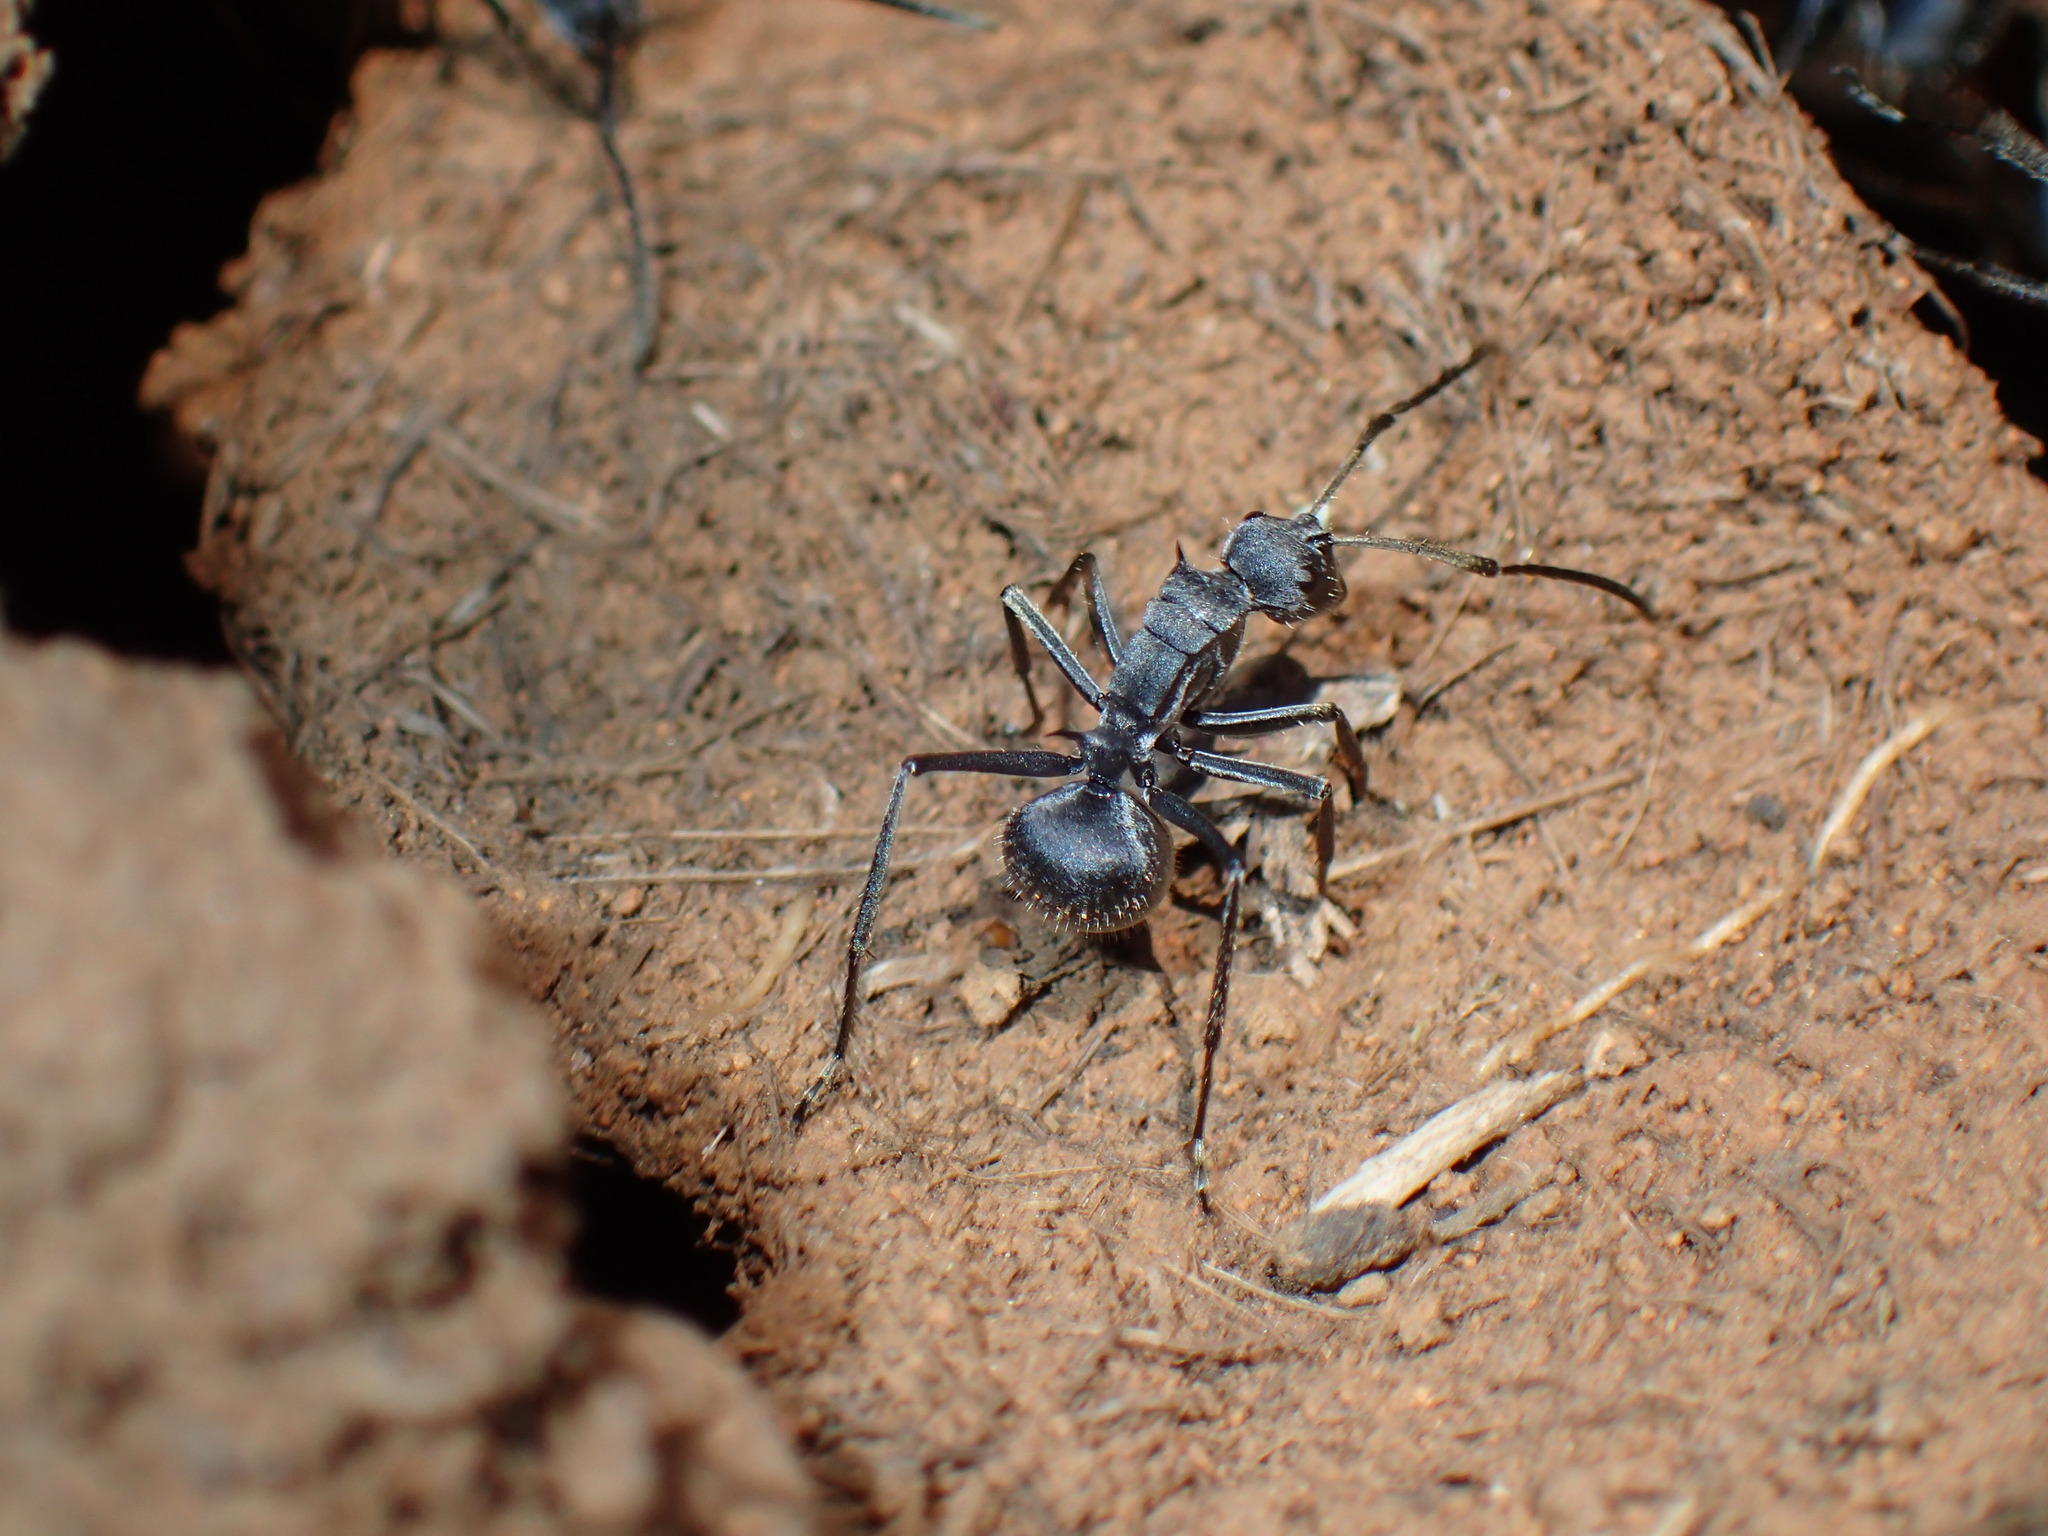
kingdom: Animalia
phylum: Arthropoda
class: Insecta
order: Hymenoptera
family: Formicidae
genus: Polyrhachis
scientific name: Polyrhachis schistacea
